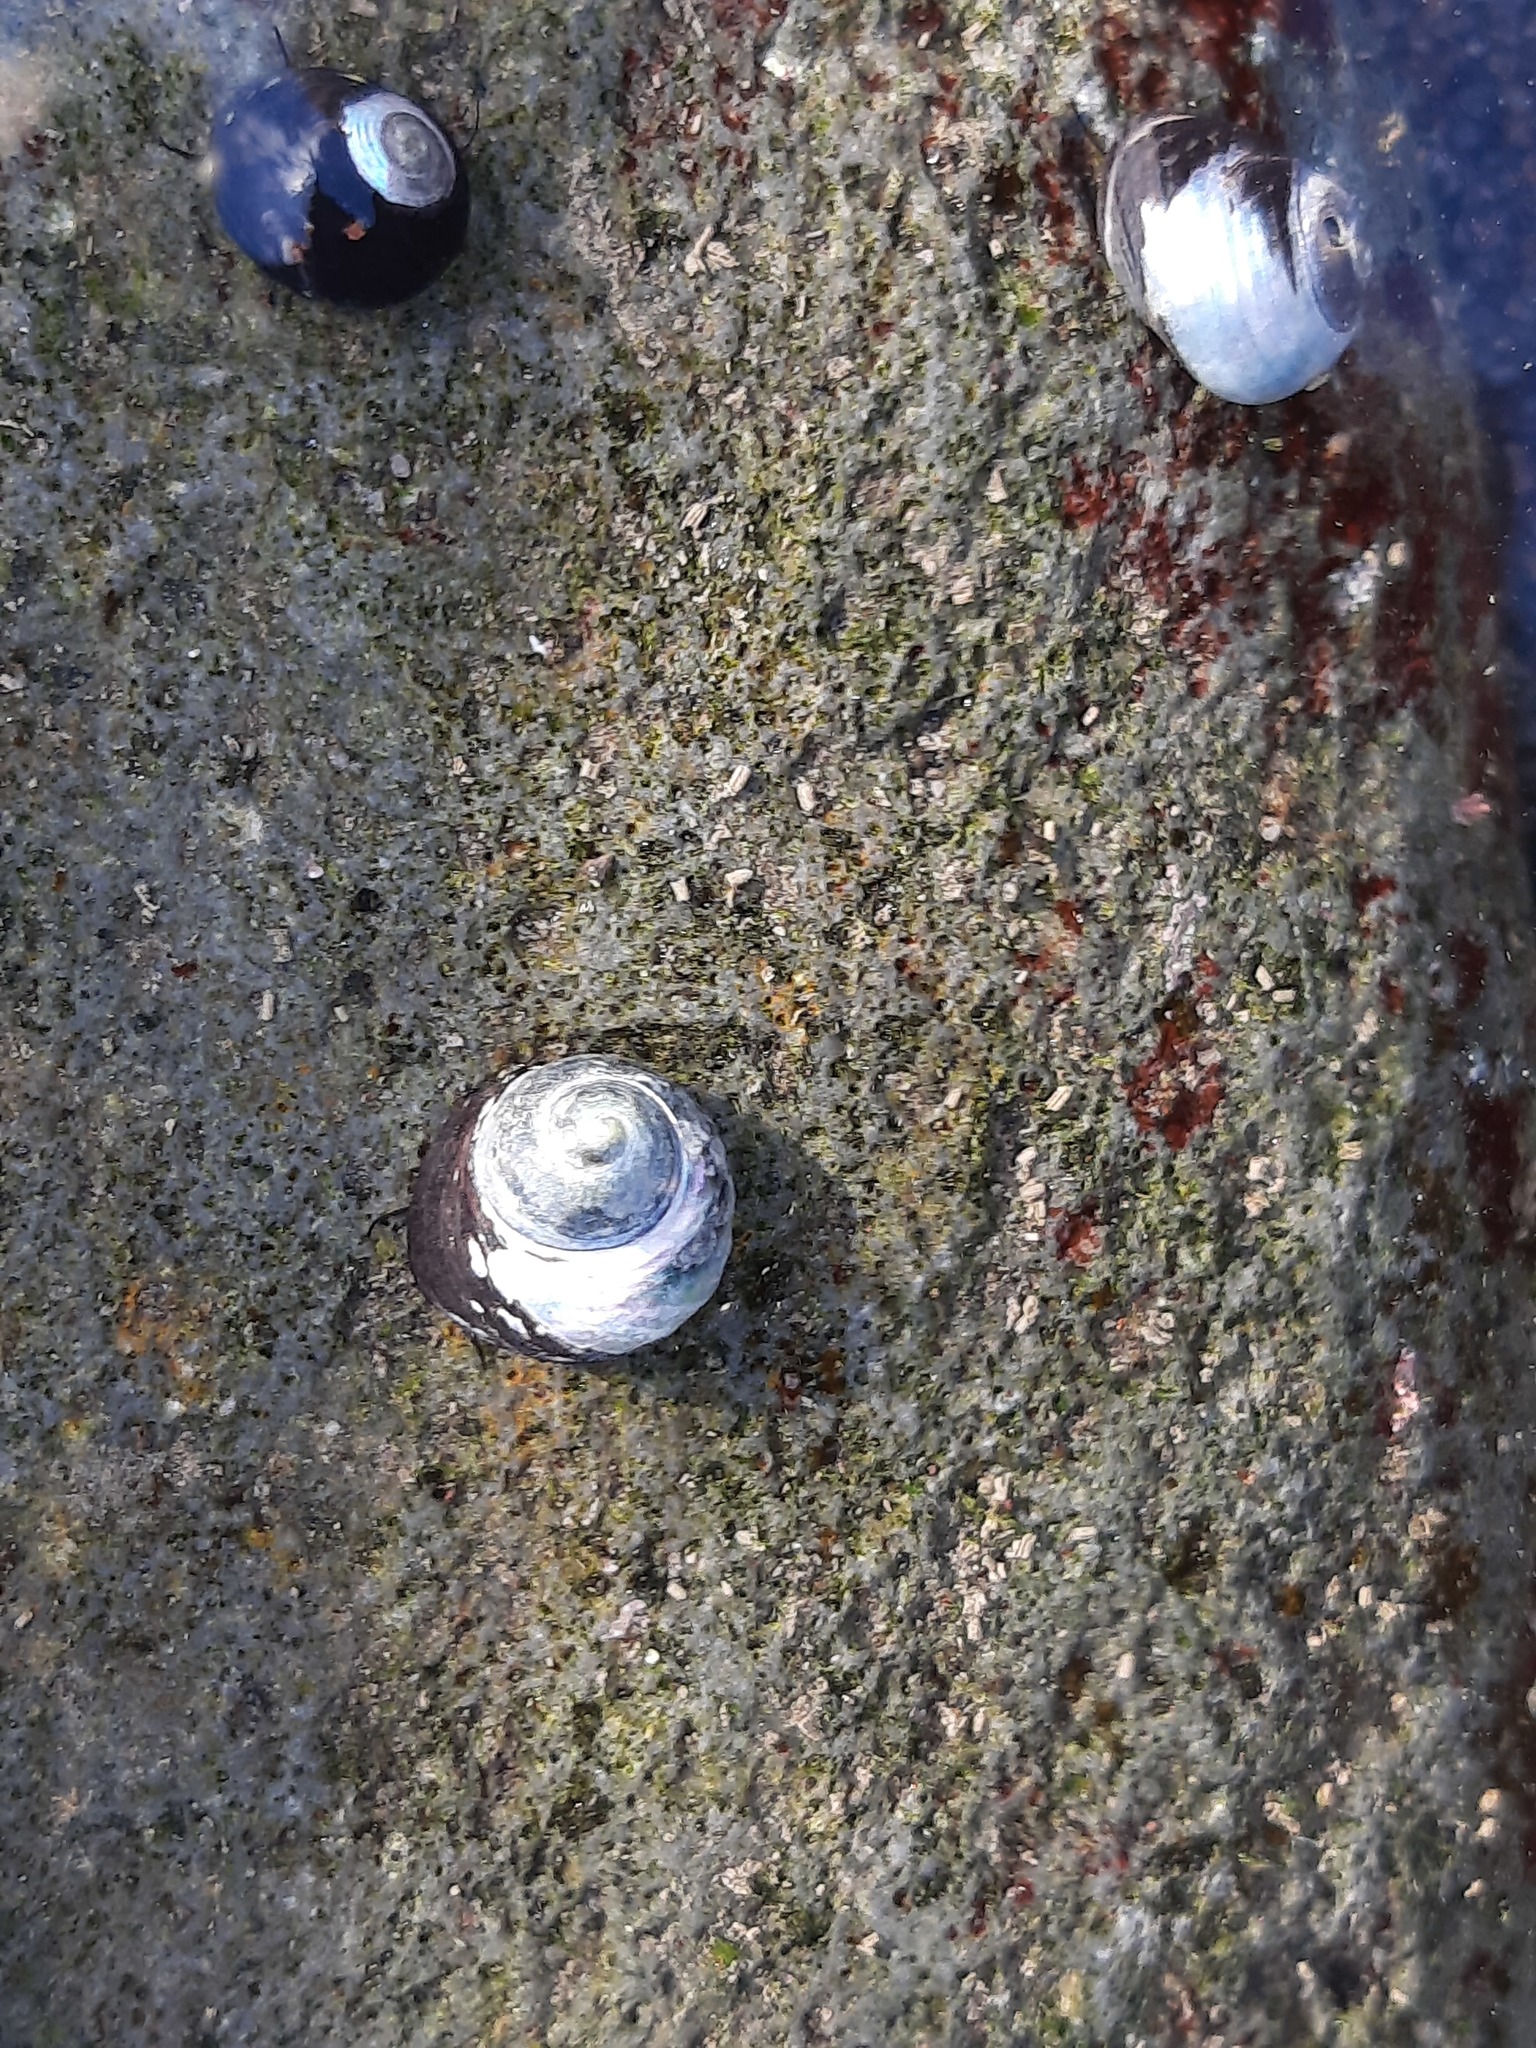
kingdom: Animalia
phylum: Mollusca
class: Gastropoda
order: Trochida
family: Trochidae
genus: Diloma
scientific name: Diloma aridum
